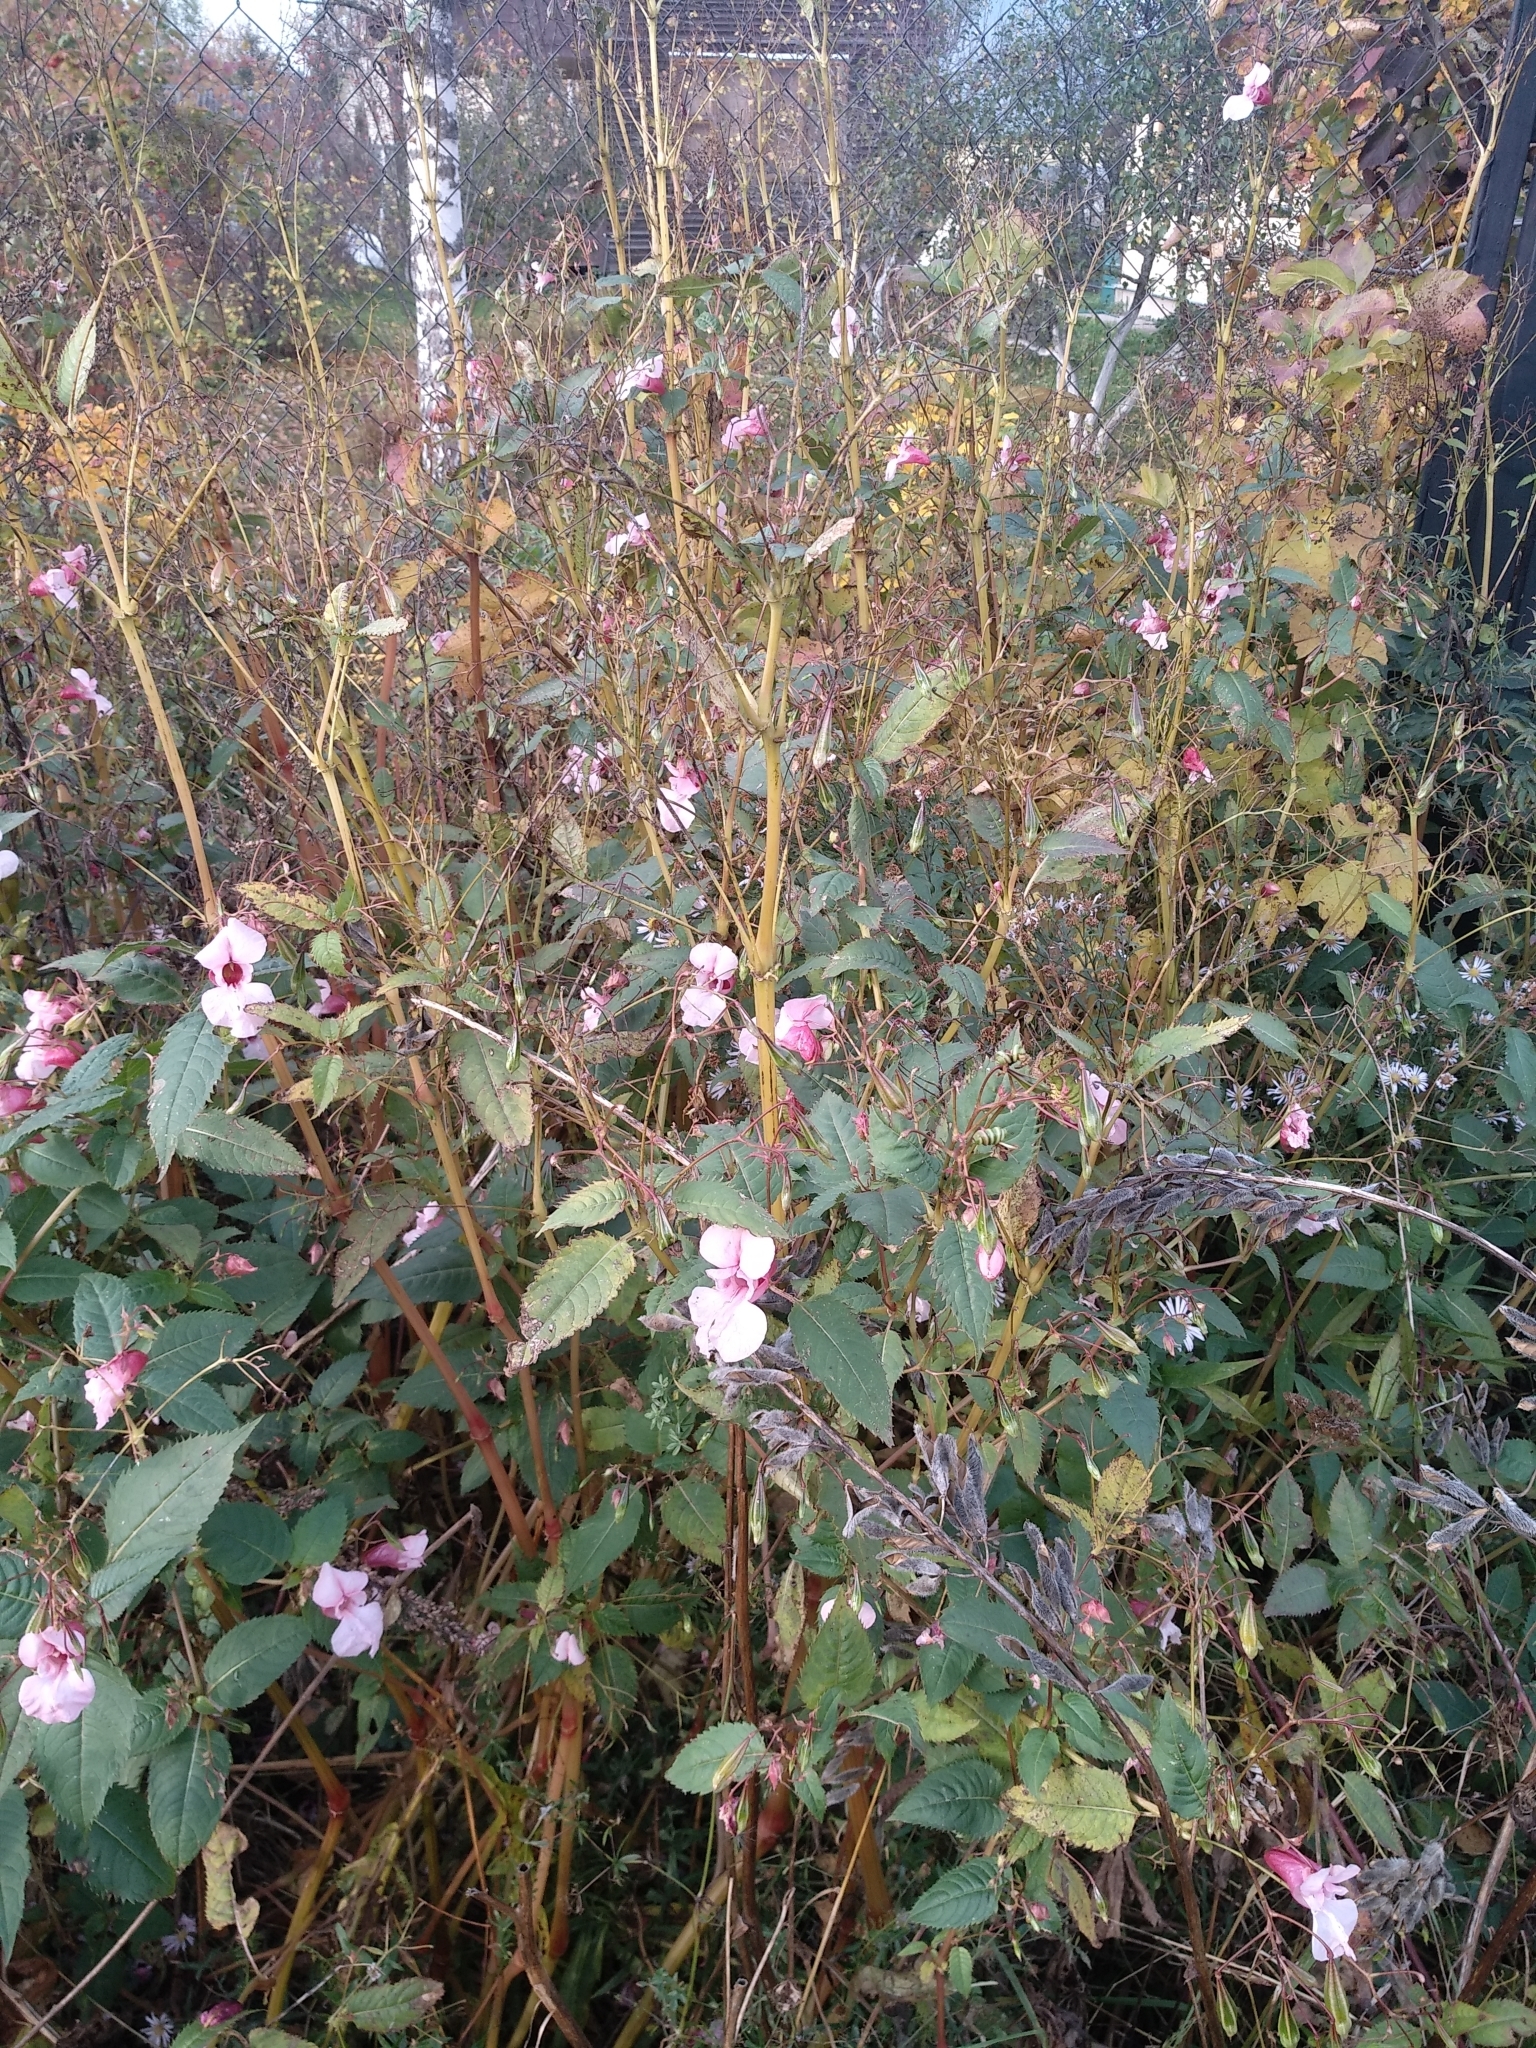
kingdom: Plantae
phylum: Tracheophyta
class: Magnoliopsida
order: Ericales
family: Balsaminaceae
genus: Impatiens
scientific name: Impatiens glandulifera
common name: Himalayan balsam
